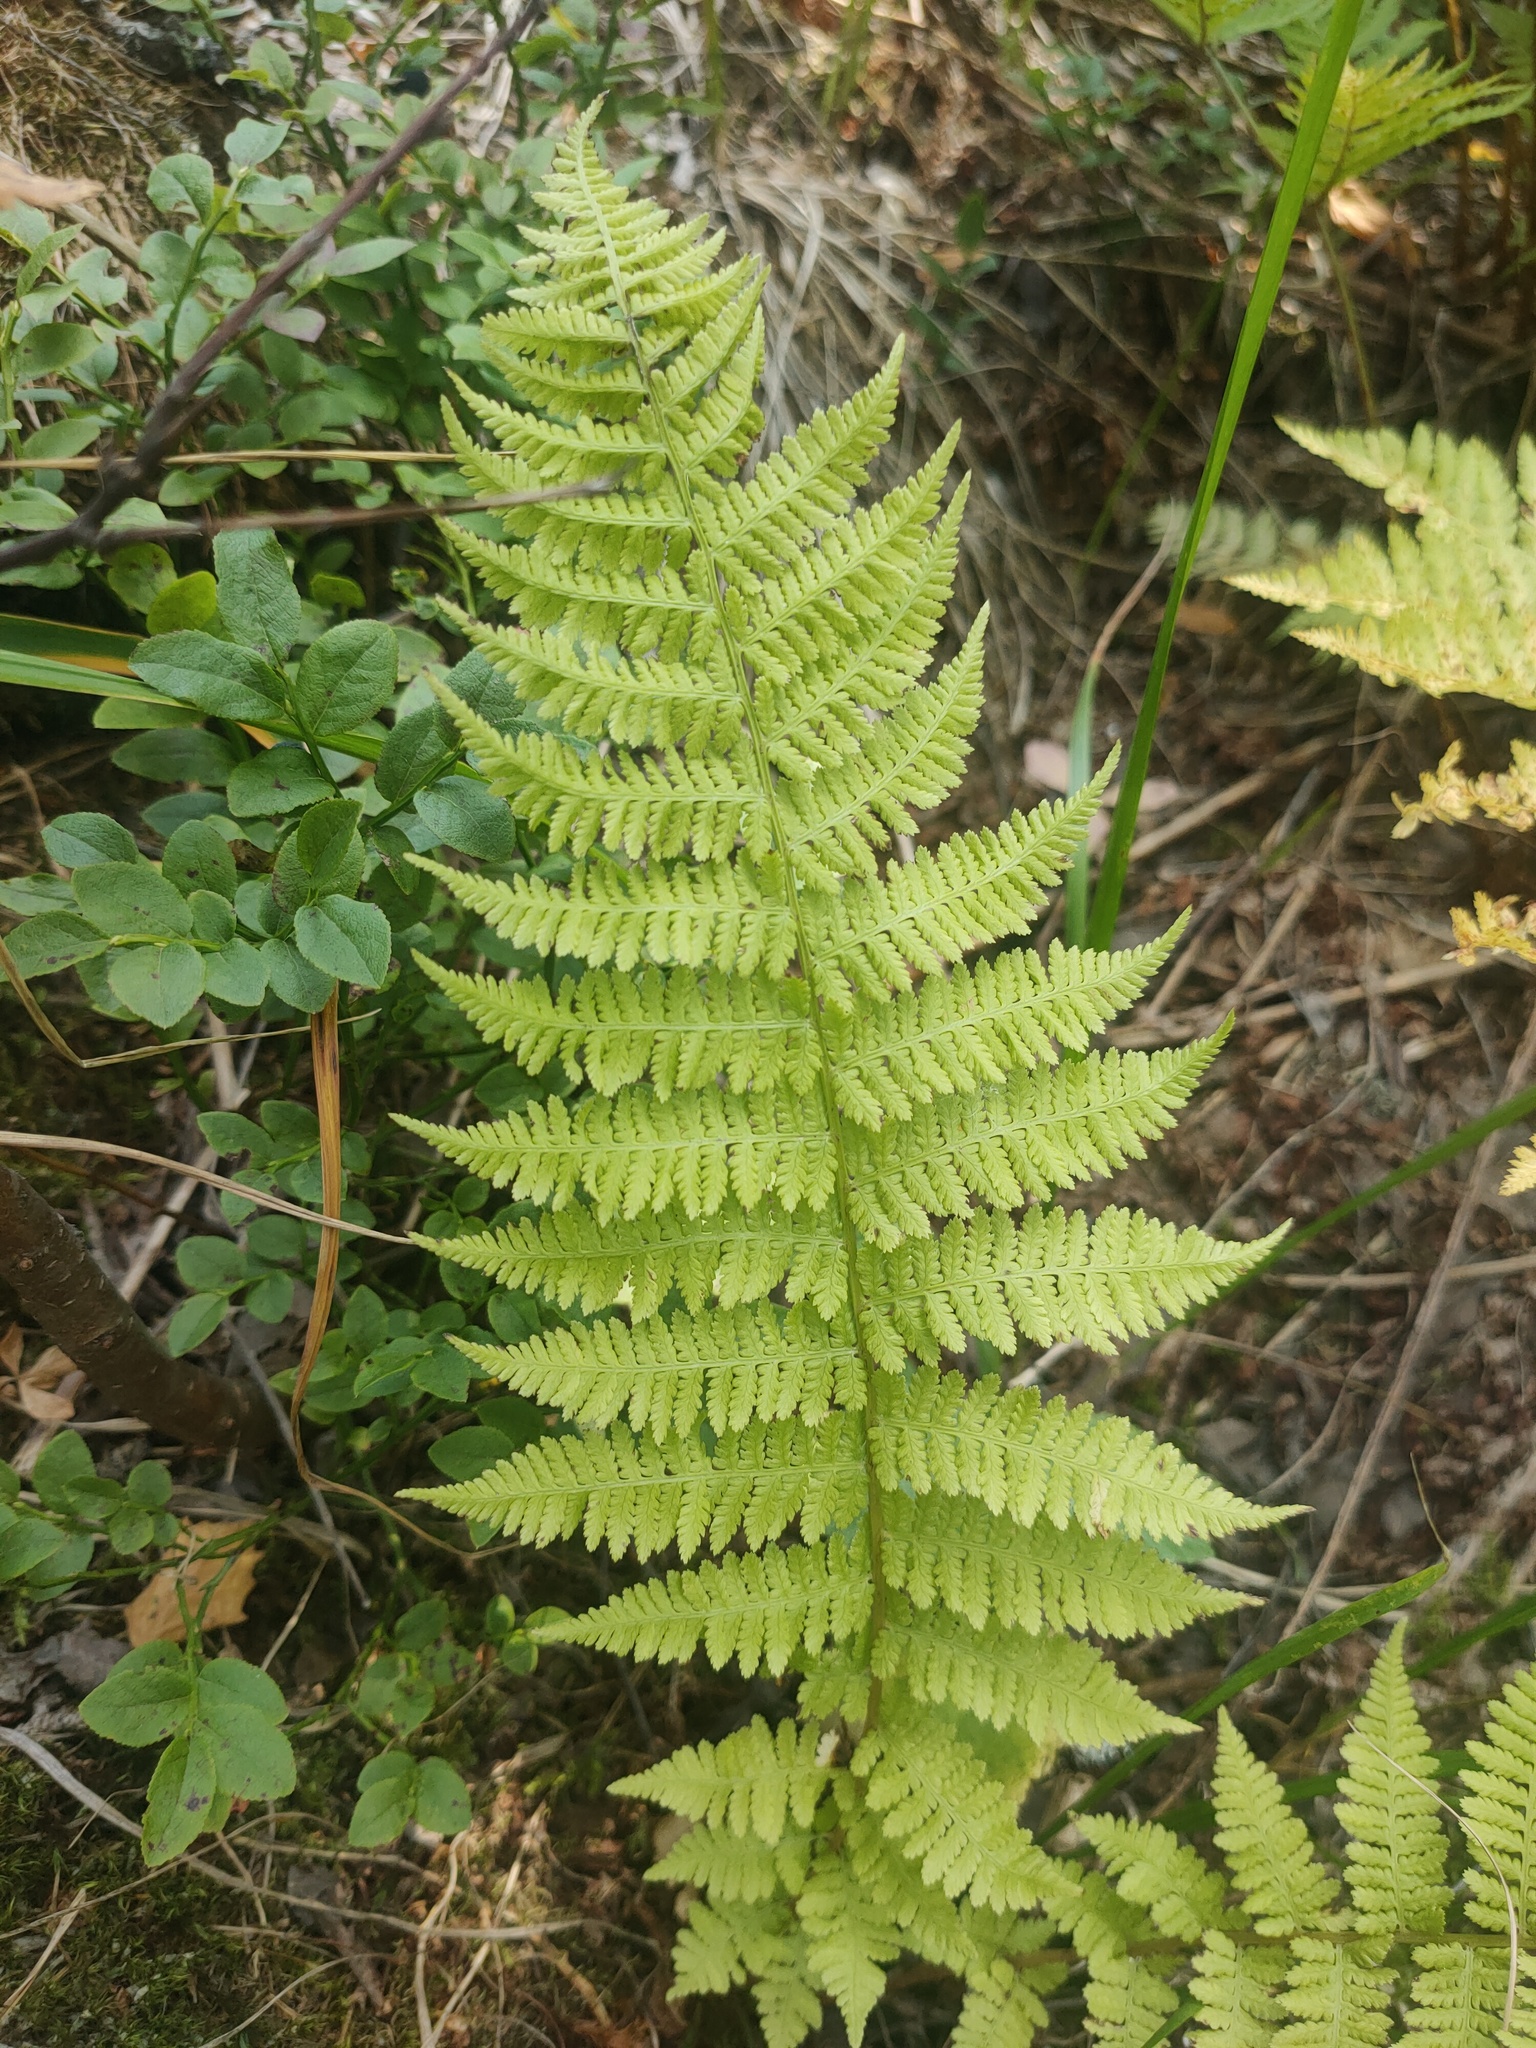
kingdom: Plantae
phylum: Tracheophyta
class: Polypodiopsida
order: Polypodiales
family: Athyriaceae
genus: Athyrium
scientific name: Athyrium filix-femina
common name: Lady fern
